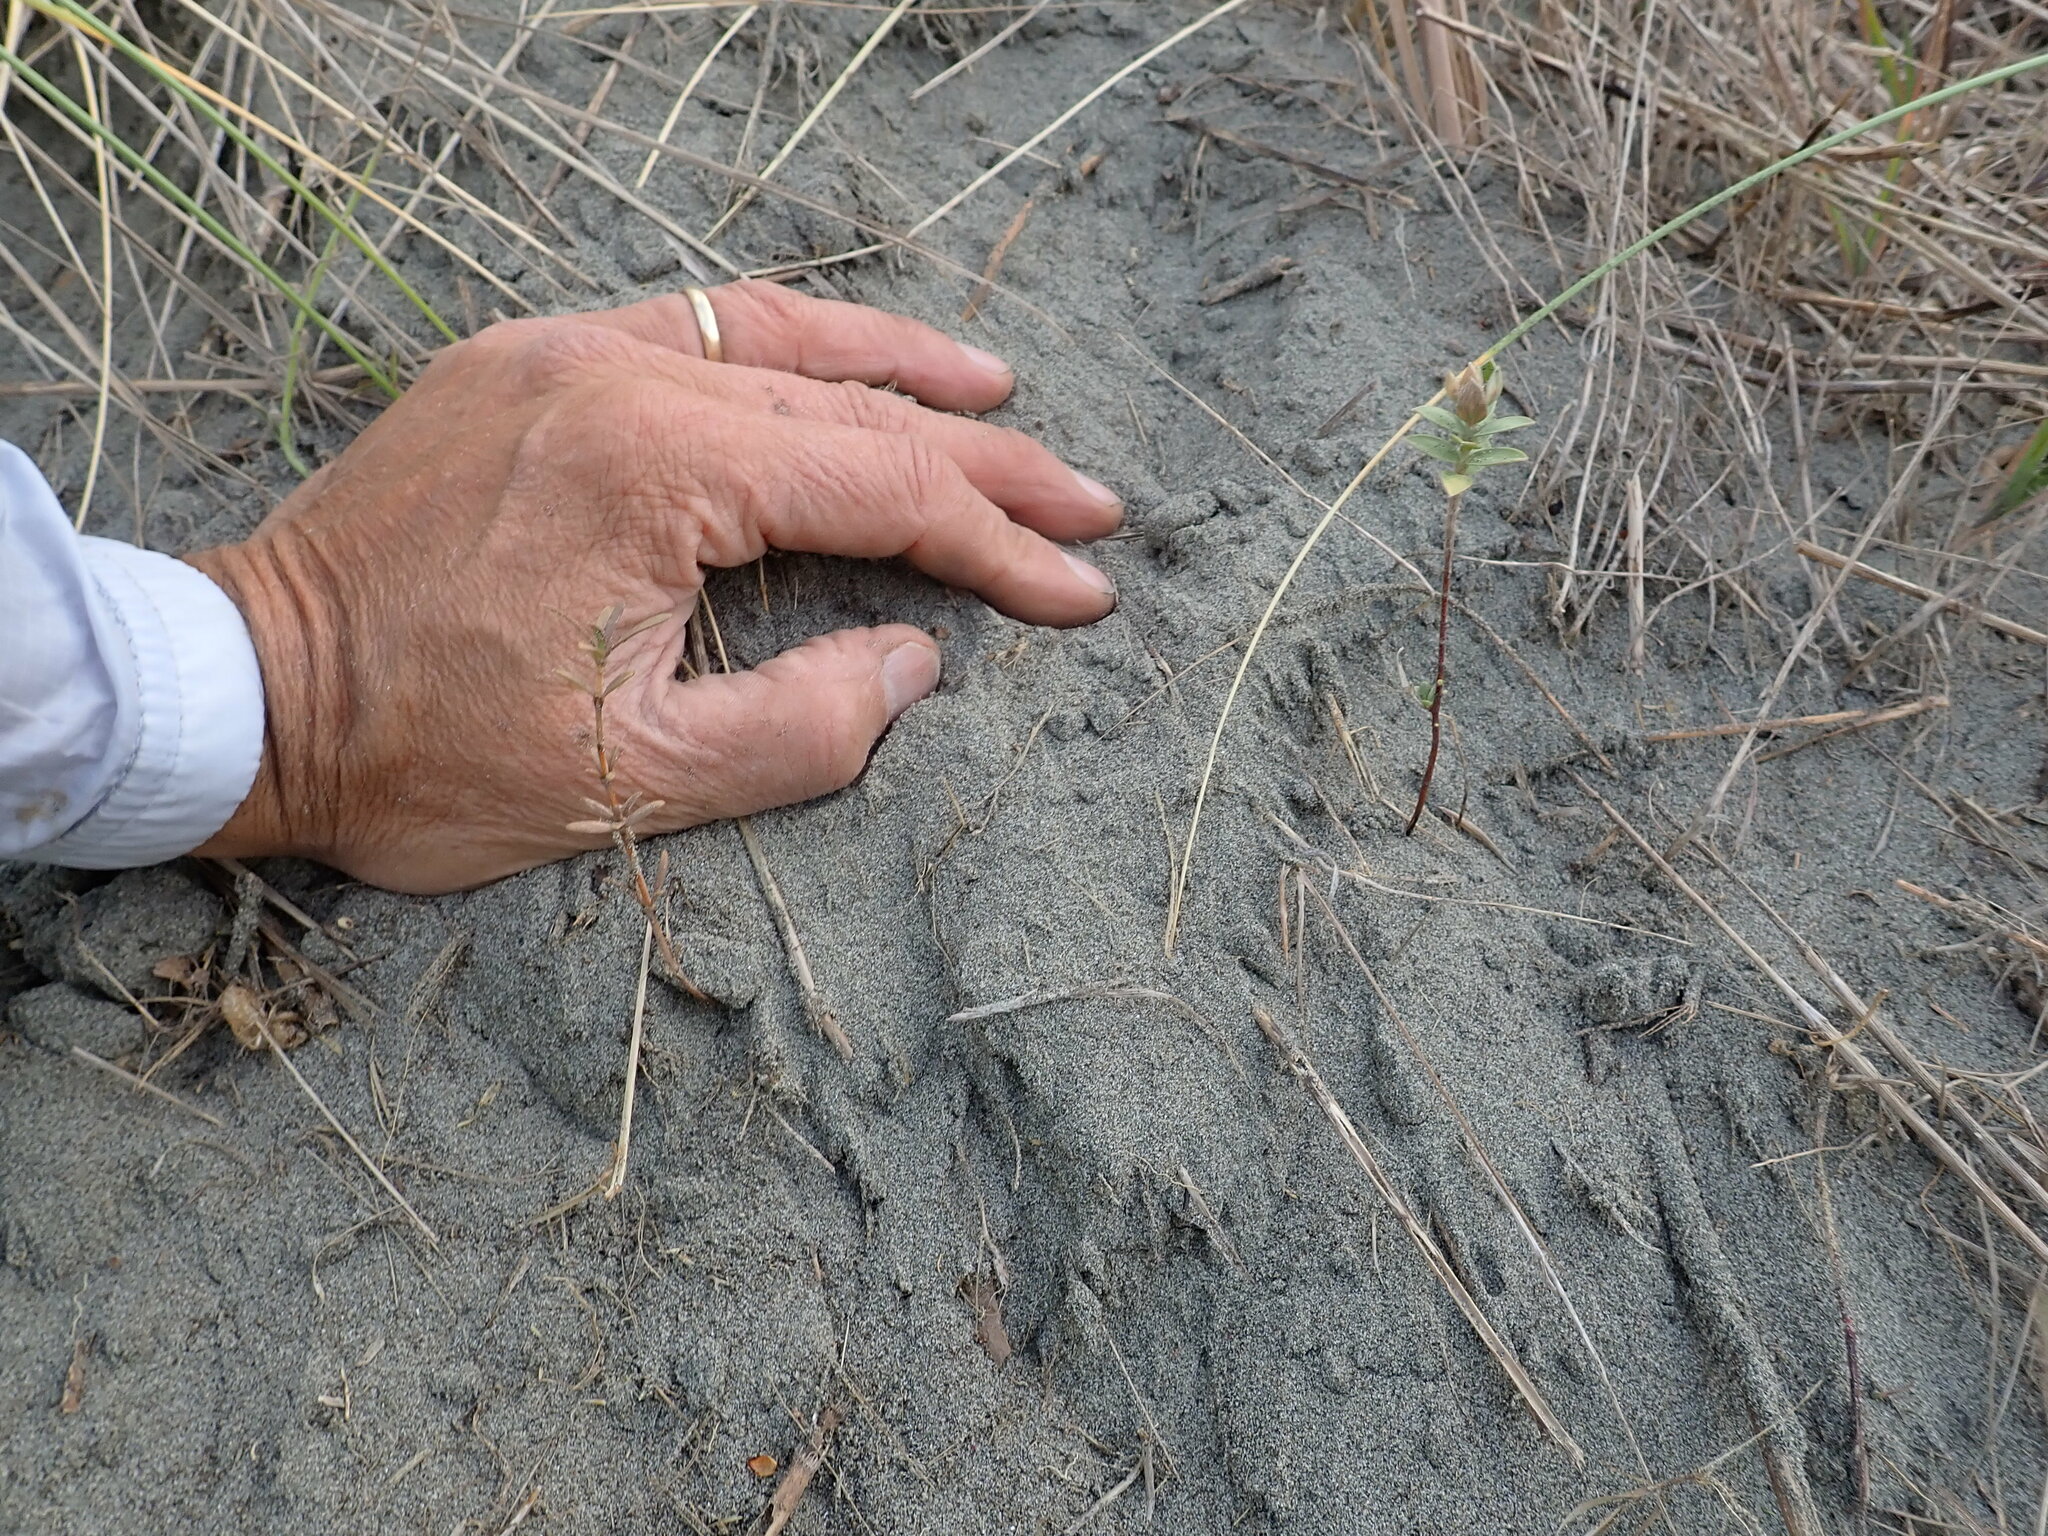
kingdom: Plantae
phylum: Tracheophyta
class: Magnoliopsida
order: Malvales
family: Thymelaeaceae
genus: Pimelea
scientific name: Pimelea villosa
